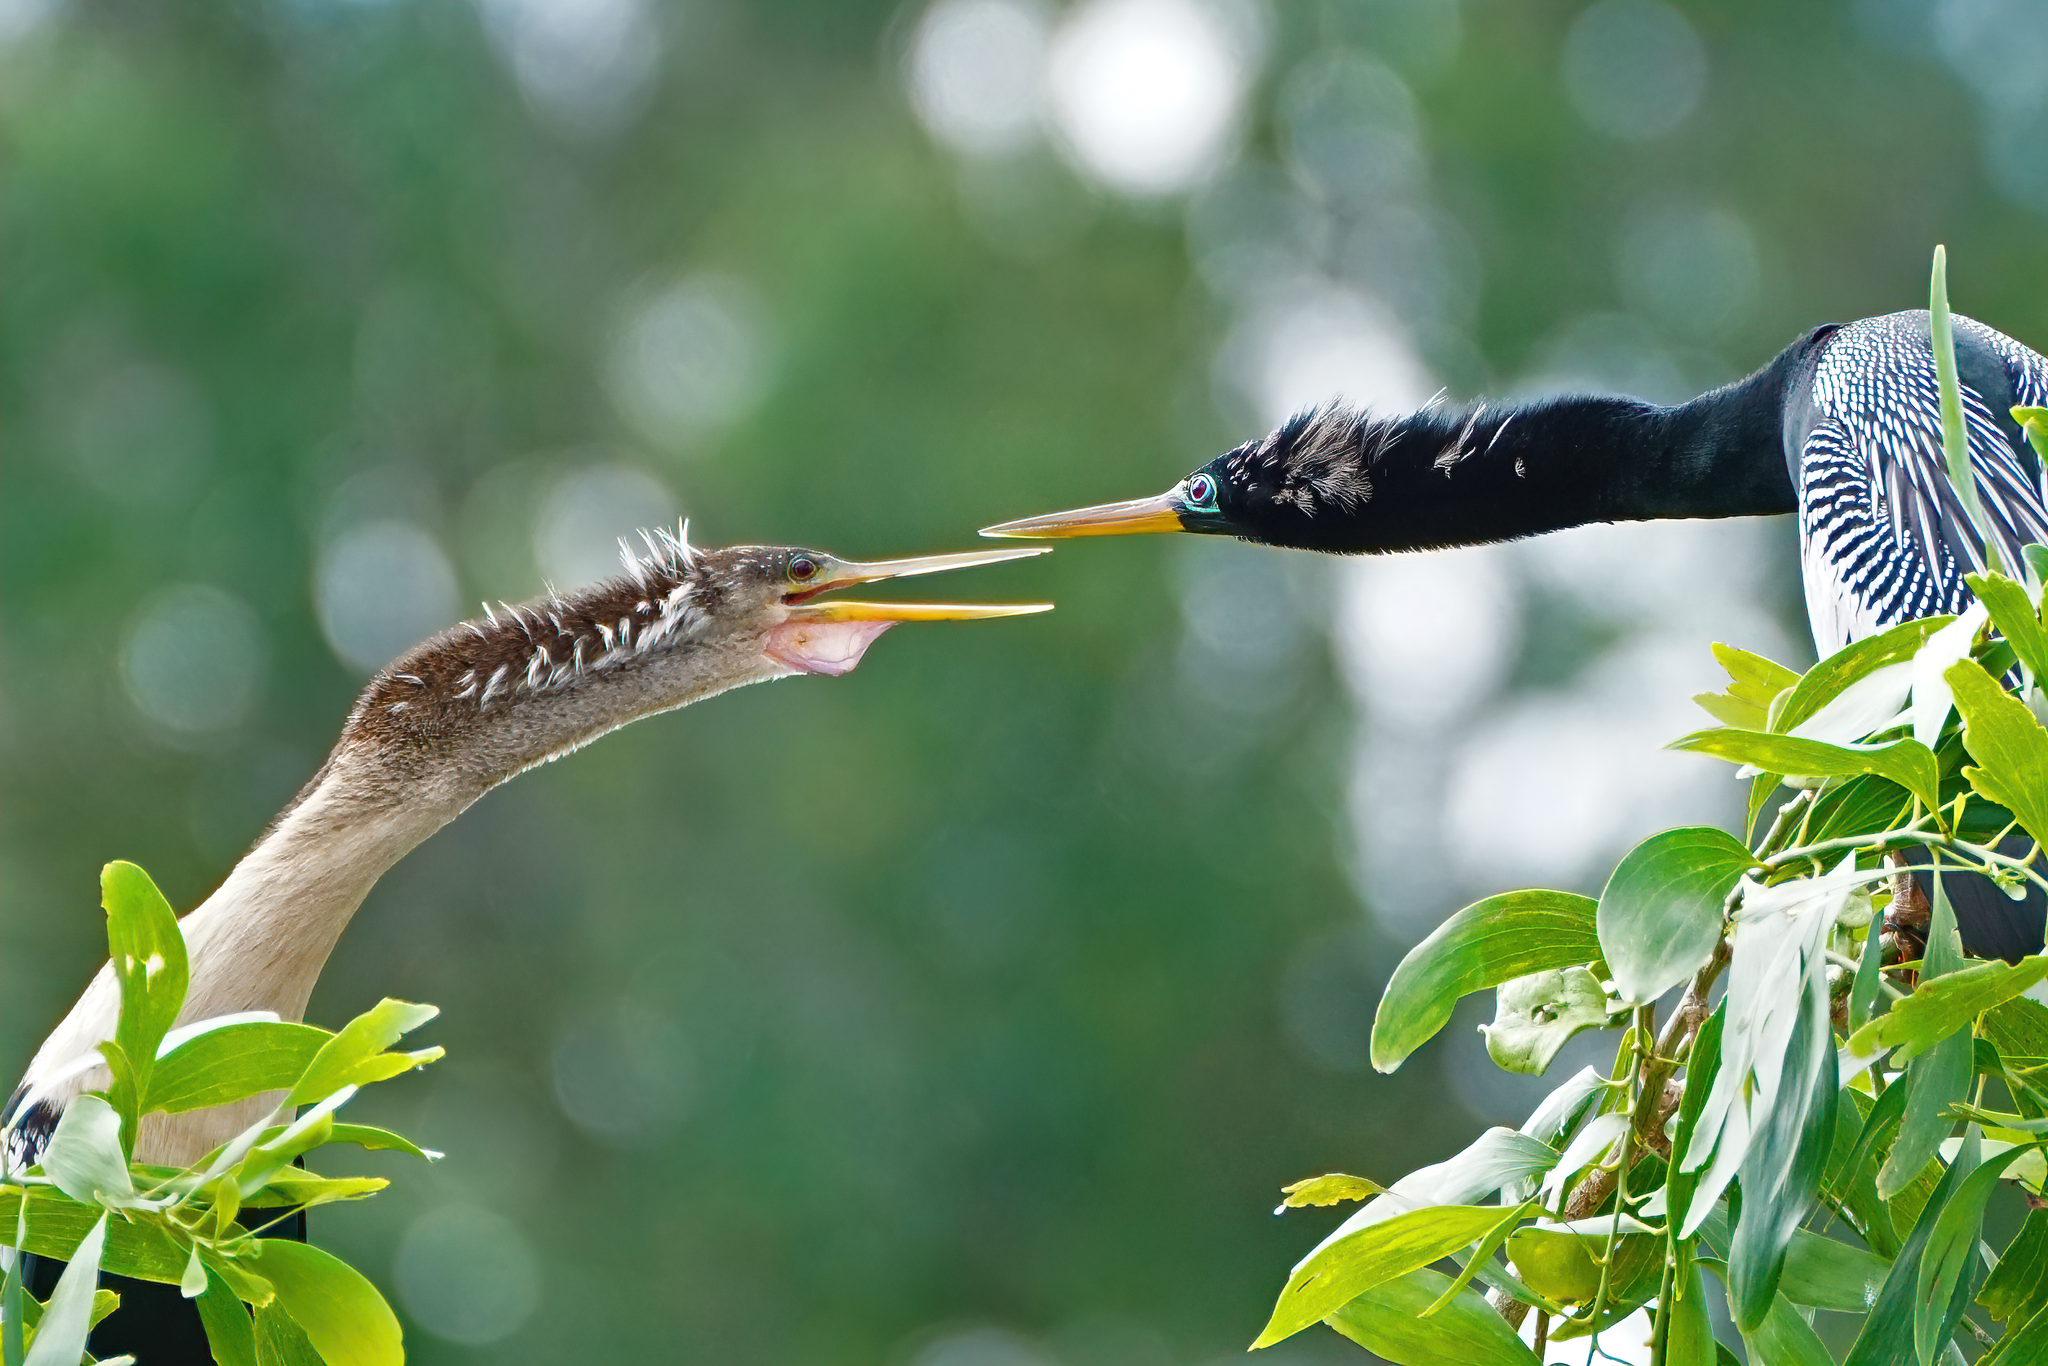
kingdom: Animalia
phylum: Chordata
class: Aves
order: Suliformes
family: Anhingidae
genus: Anhinga
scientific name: Anhinga anhinga
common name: Anhinga
